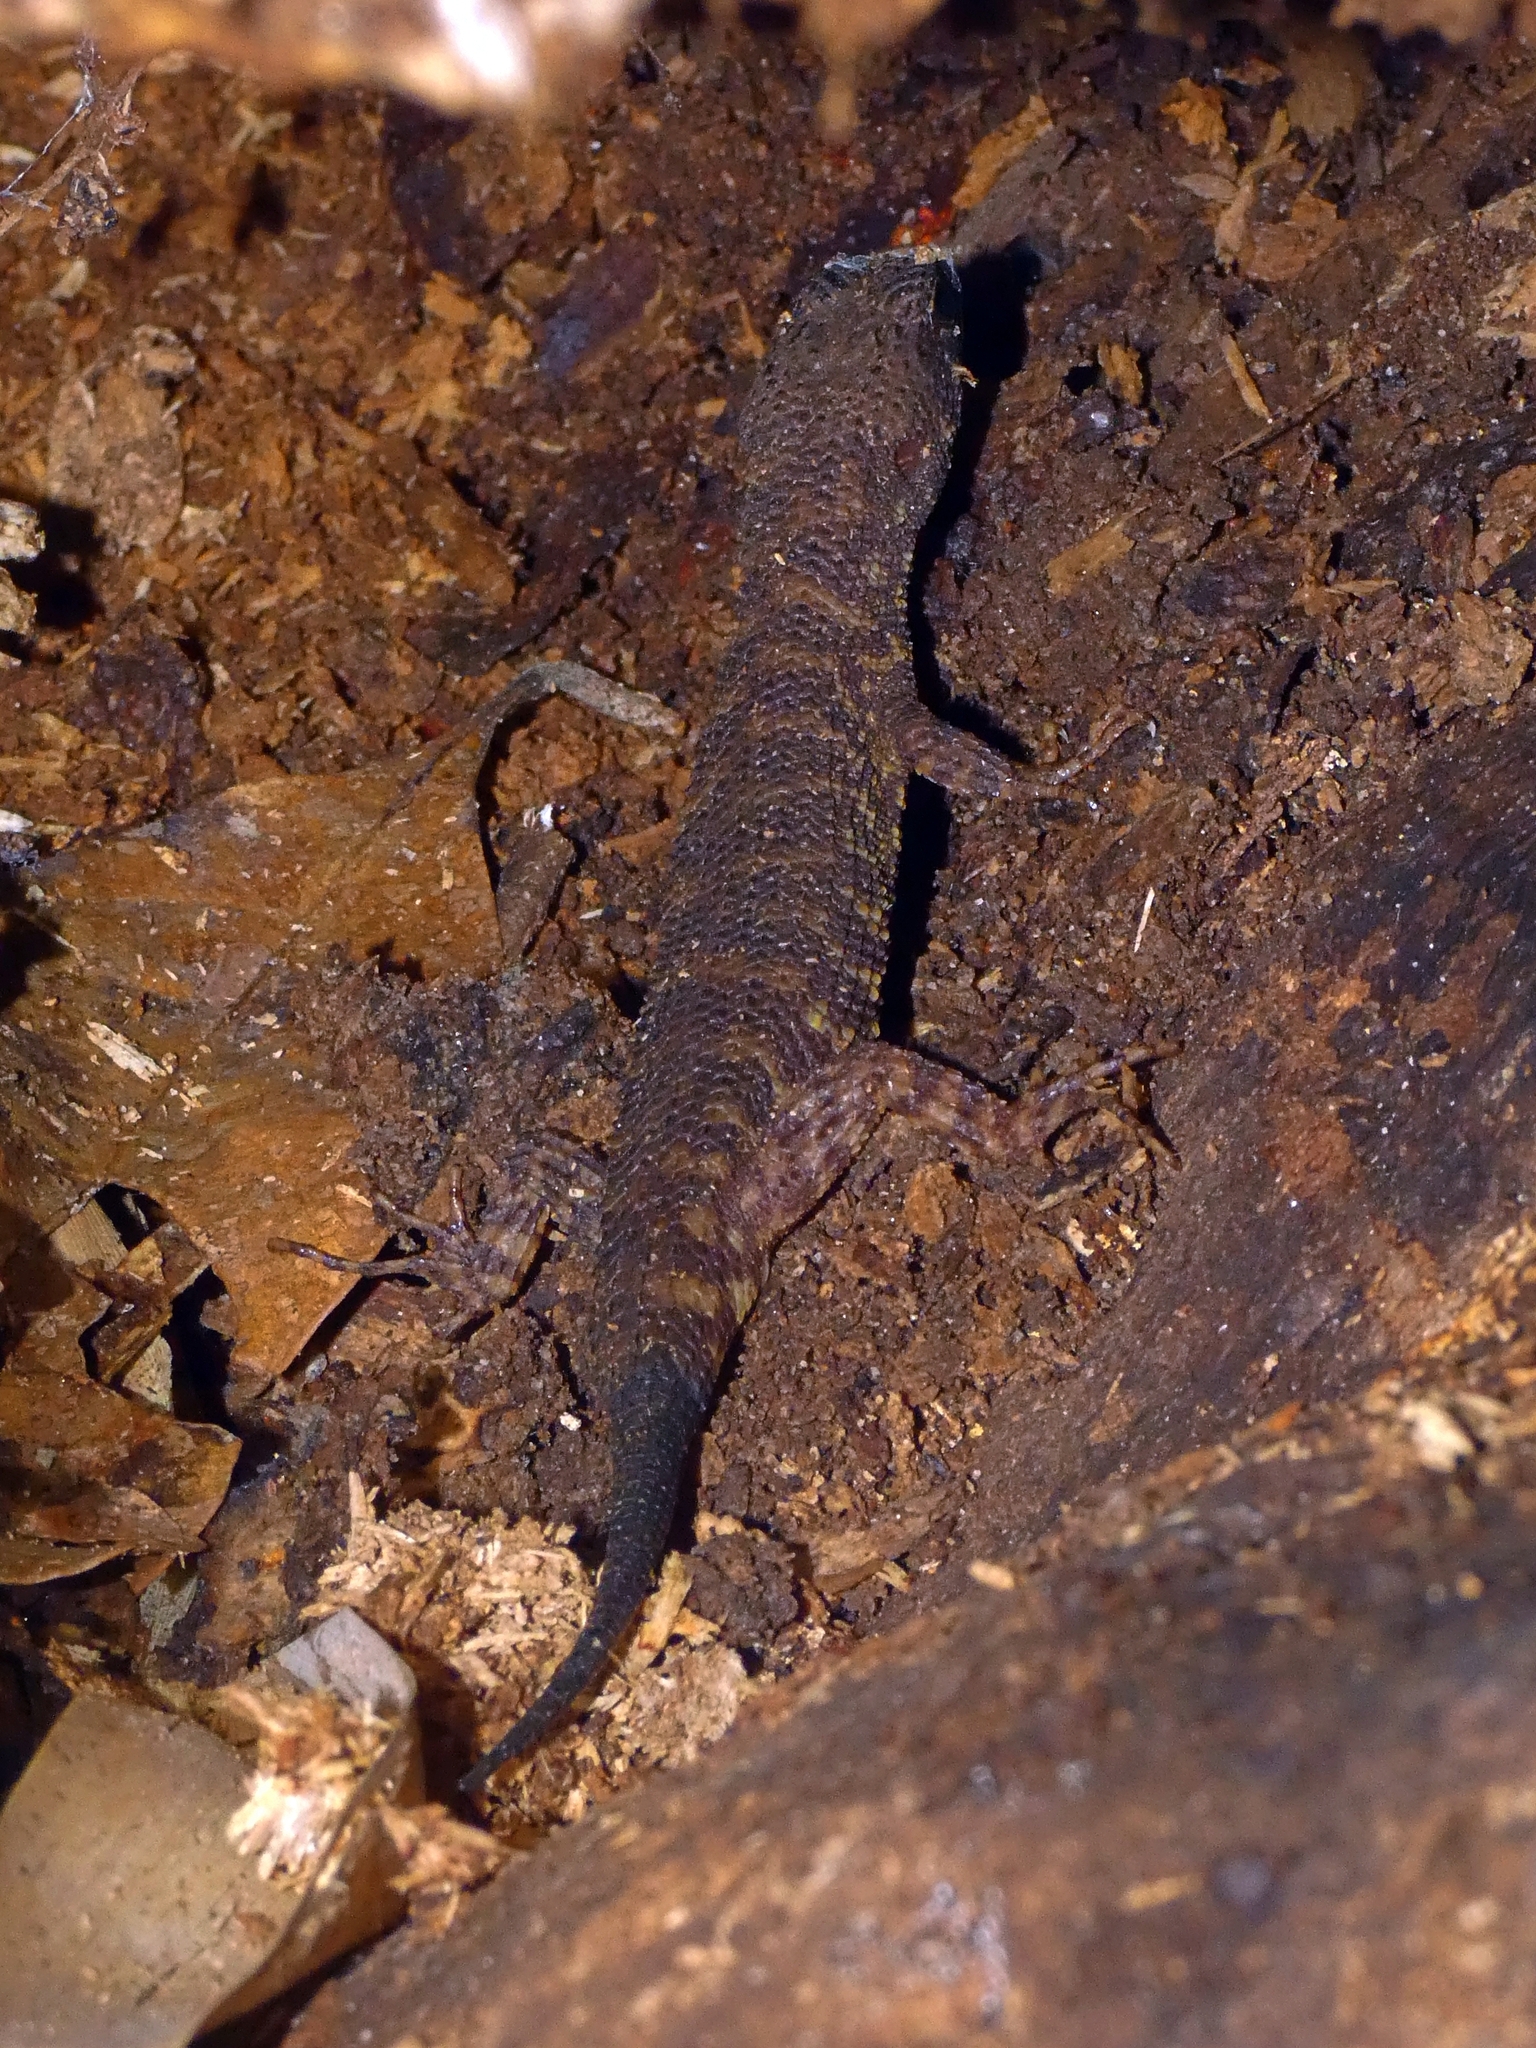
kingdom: Animalia
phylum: Chordata
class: Squamata
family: Scincidae
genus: Gnypetoscincus
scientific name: Gnypetoscincus queenslandiae
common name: Prickly forest skink
